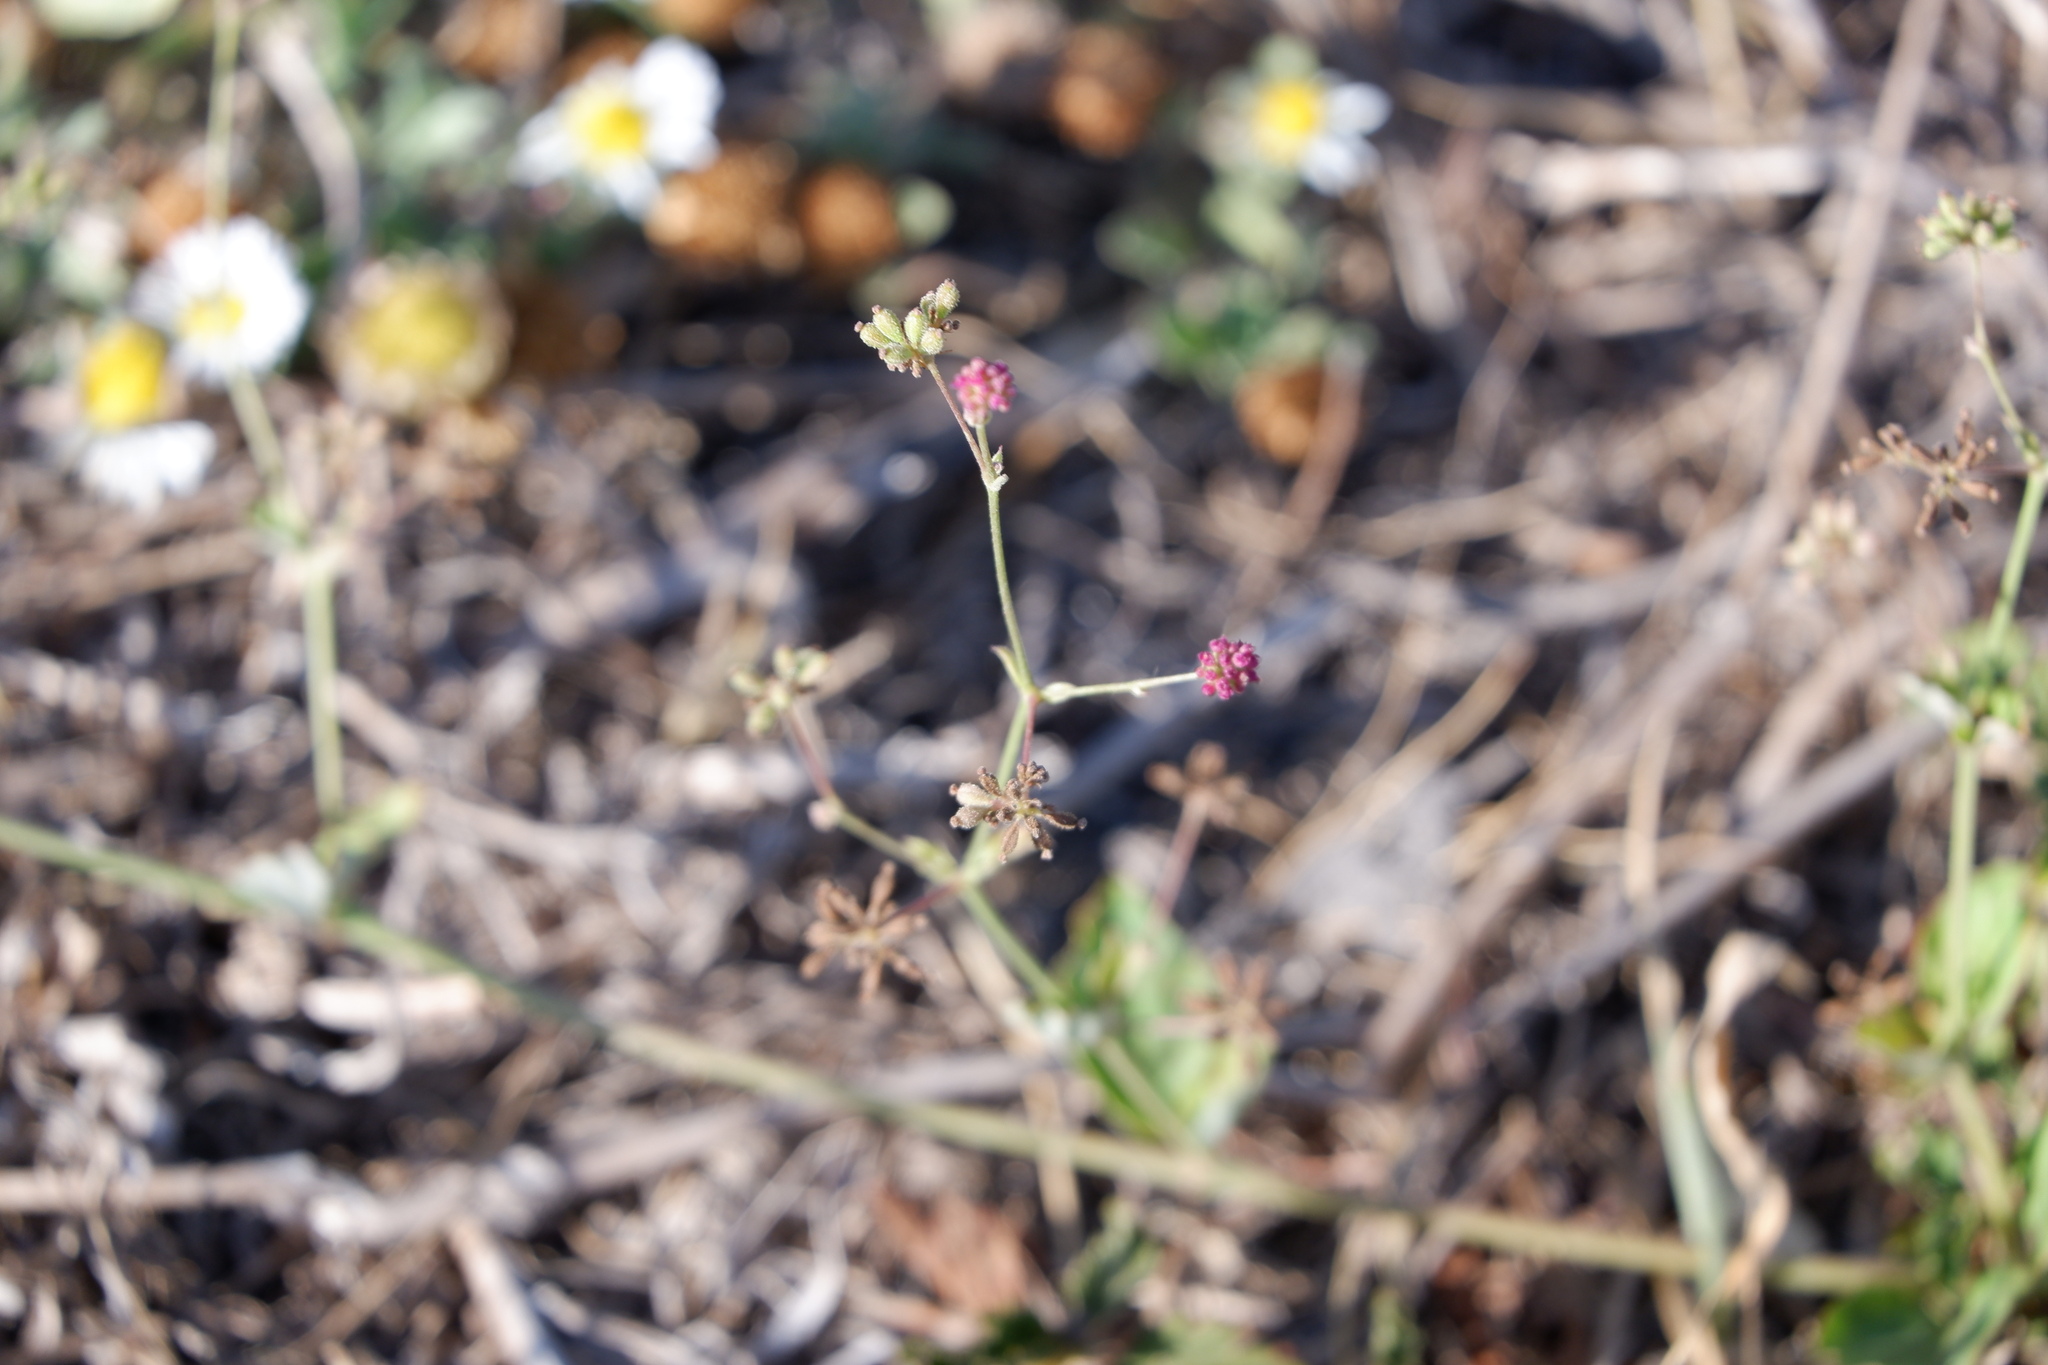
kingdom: Plantae
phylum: Tracheophyta
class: Magnoliopsida
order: Caryophyllales
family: Nyctaginaceae
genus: Boerhavia
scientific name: Boerhavia coccinea
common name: Scarlet spiderling
